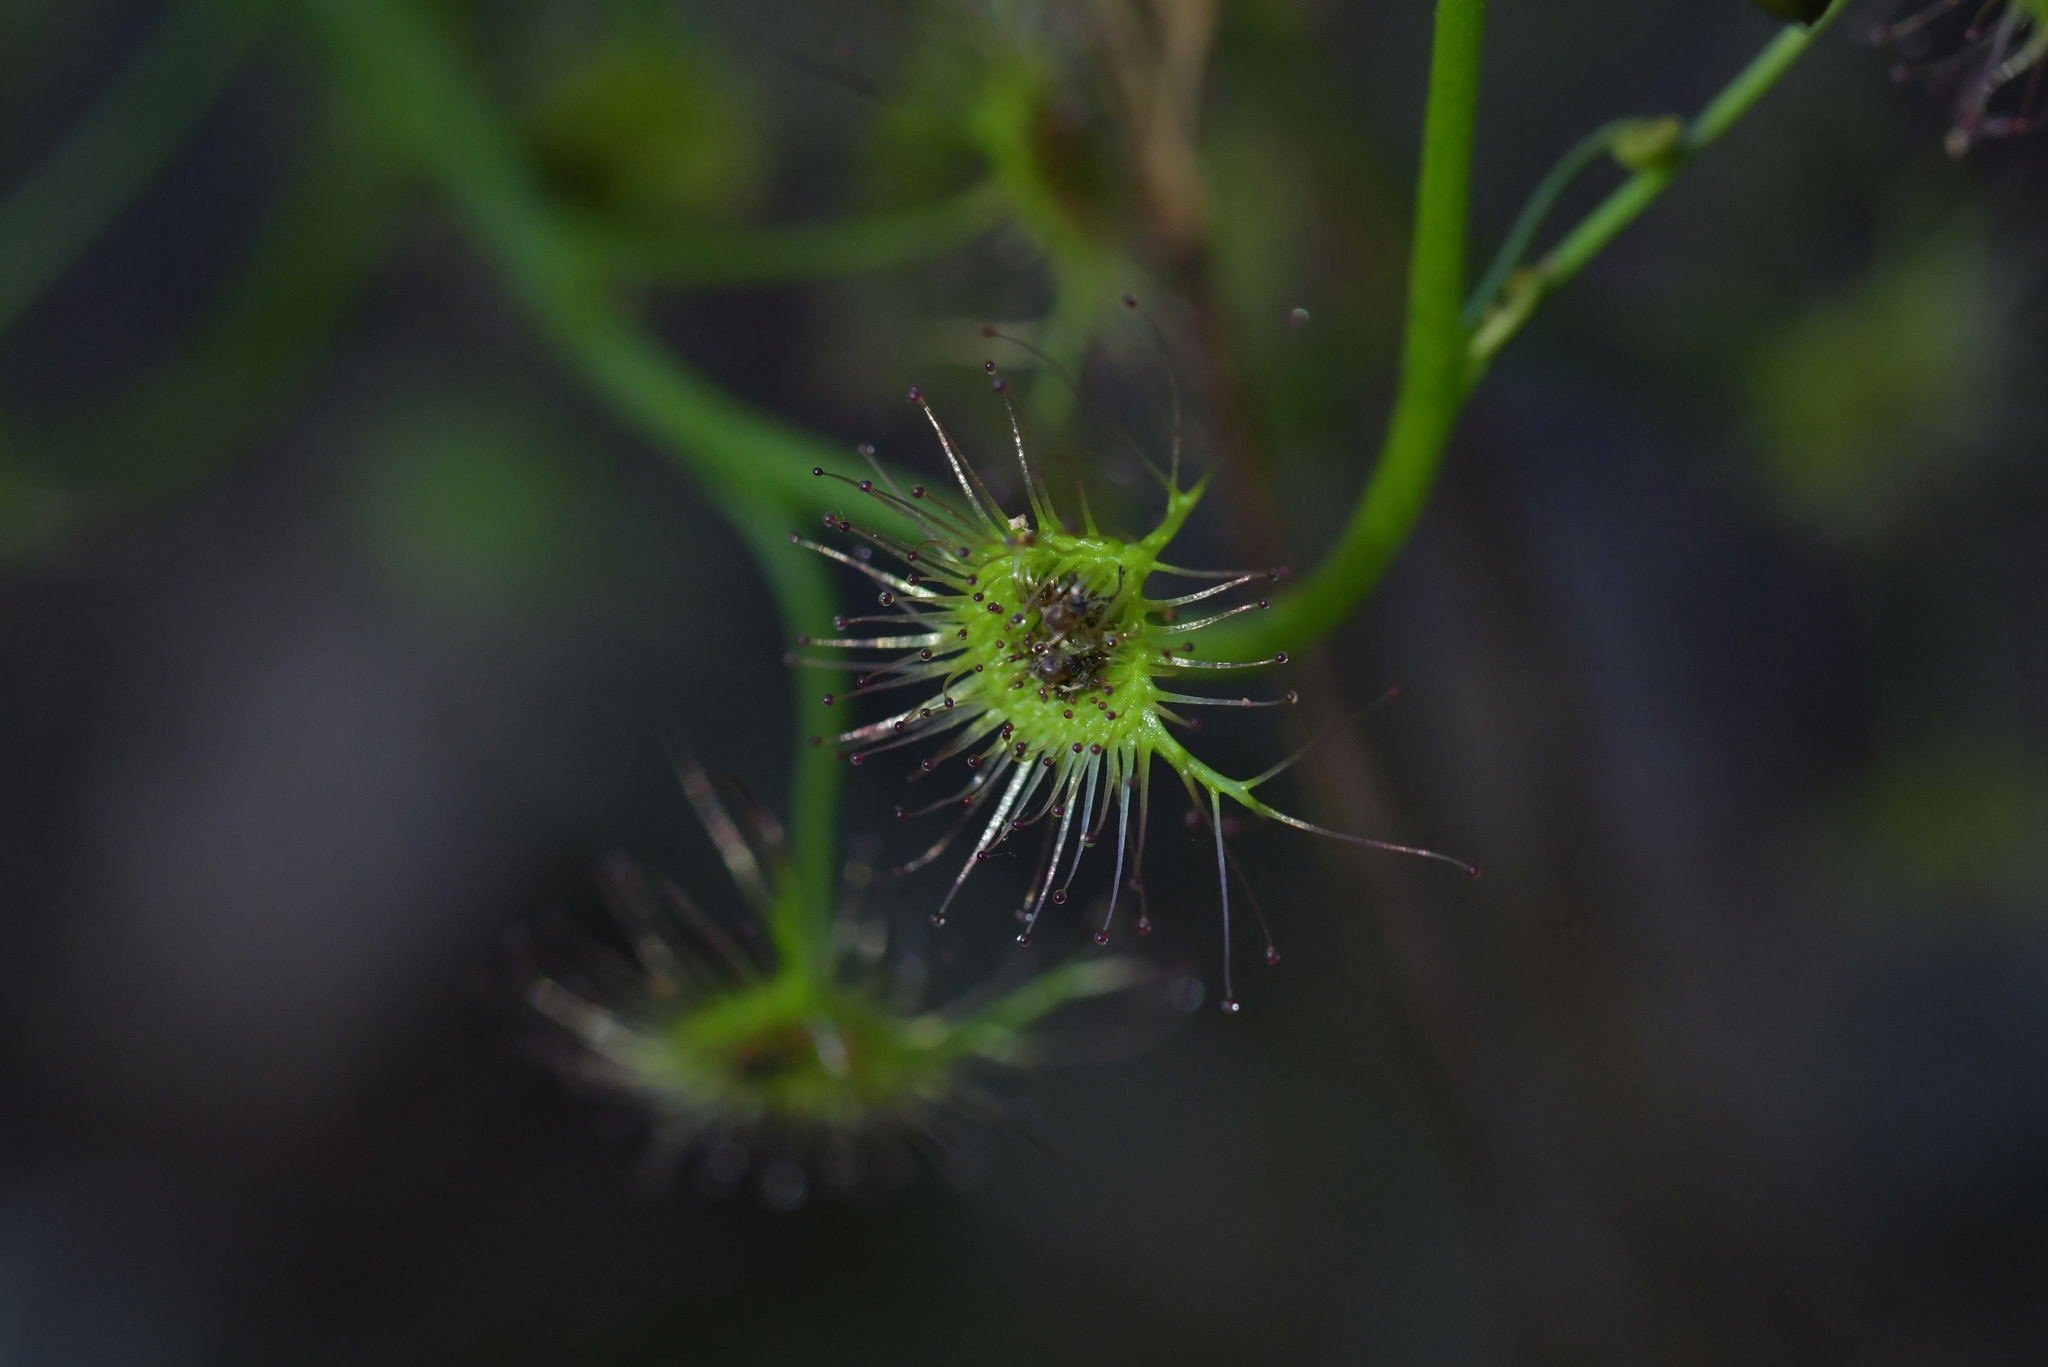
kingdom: Plantae
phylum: Tracheophyta
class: Magnoliopsida
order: Caryophyllales
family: Droseraceae
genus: Drosera
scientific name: Drosera peltata
